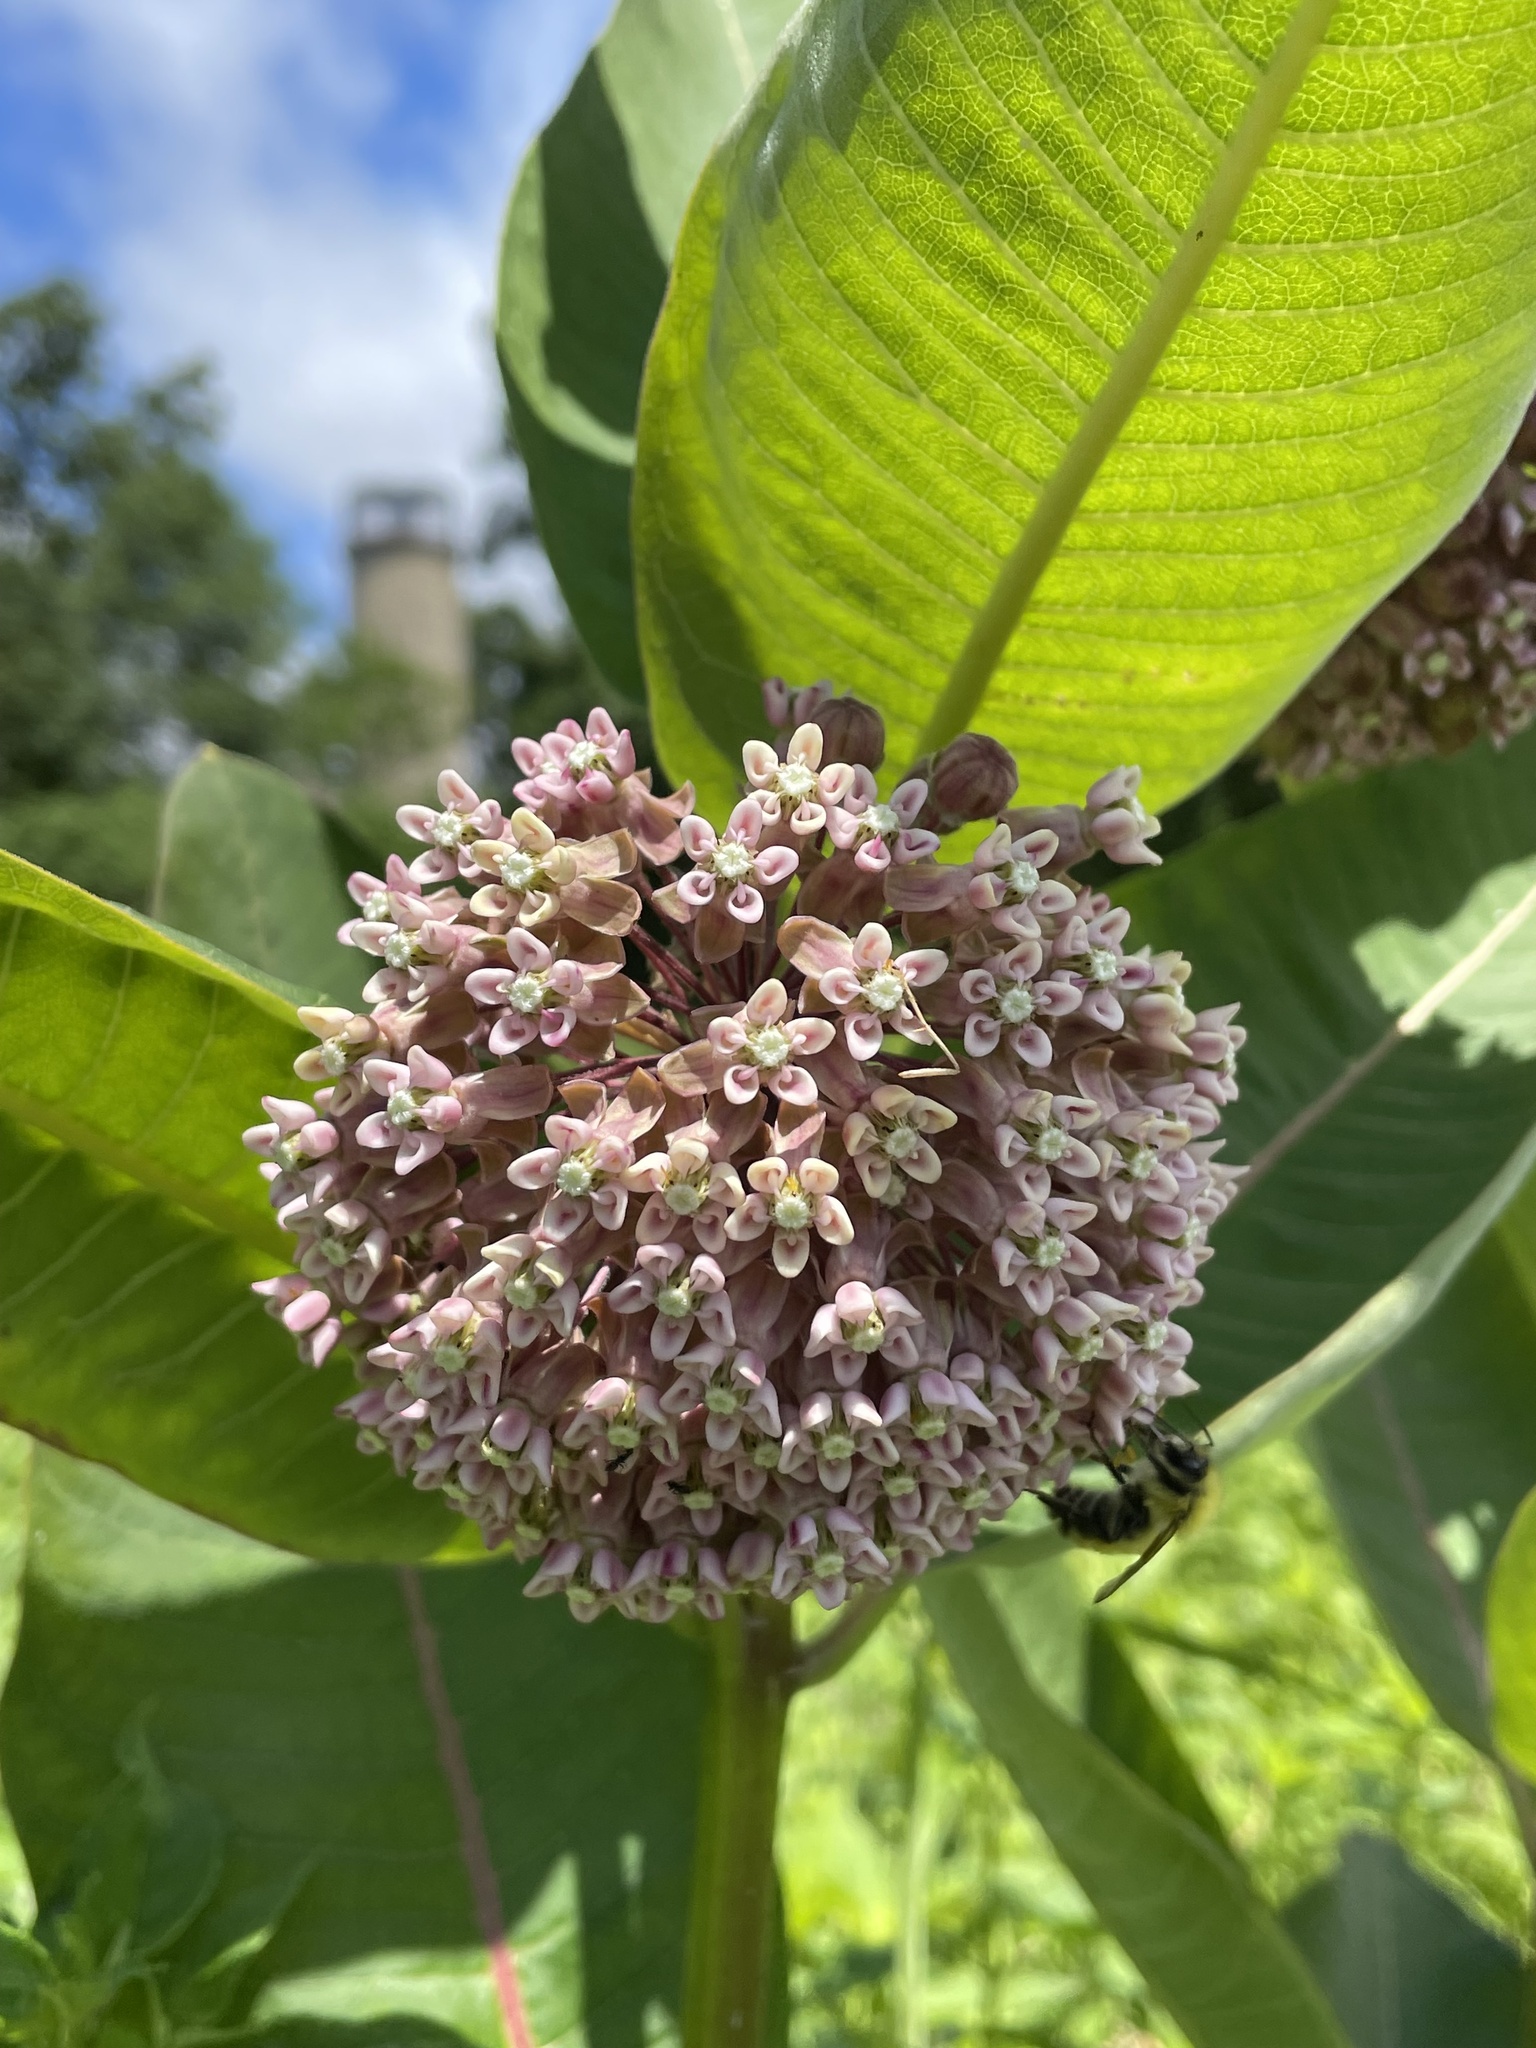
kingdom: Plantae
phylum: Tracheophyta
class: Magnoliopsida
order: Gentianales
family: Apocynaceae
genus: Asclepias
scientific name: Asclepias syriaca
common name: Common milkweed
